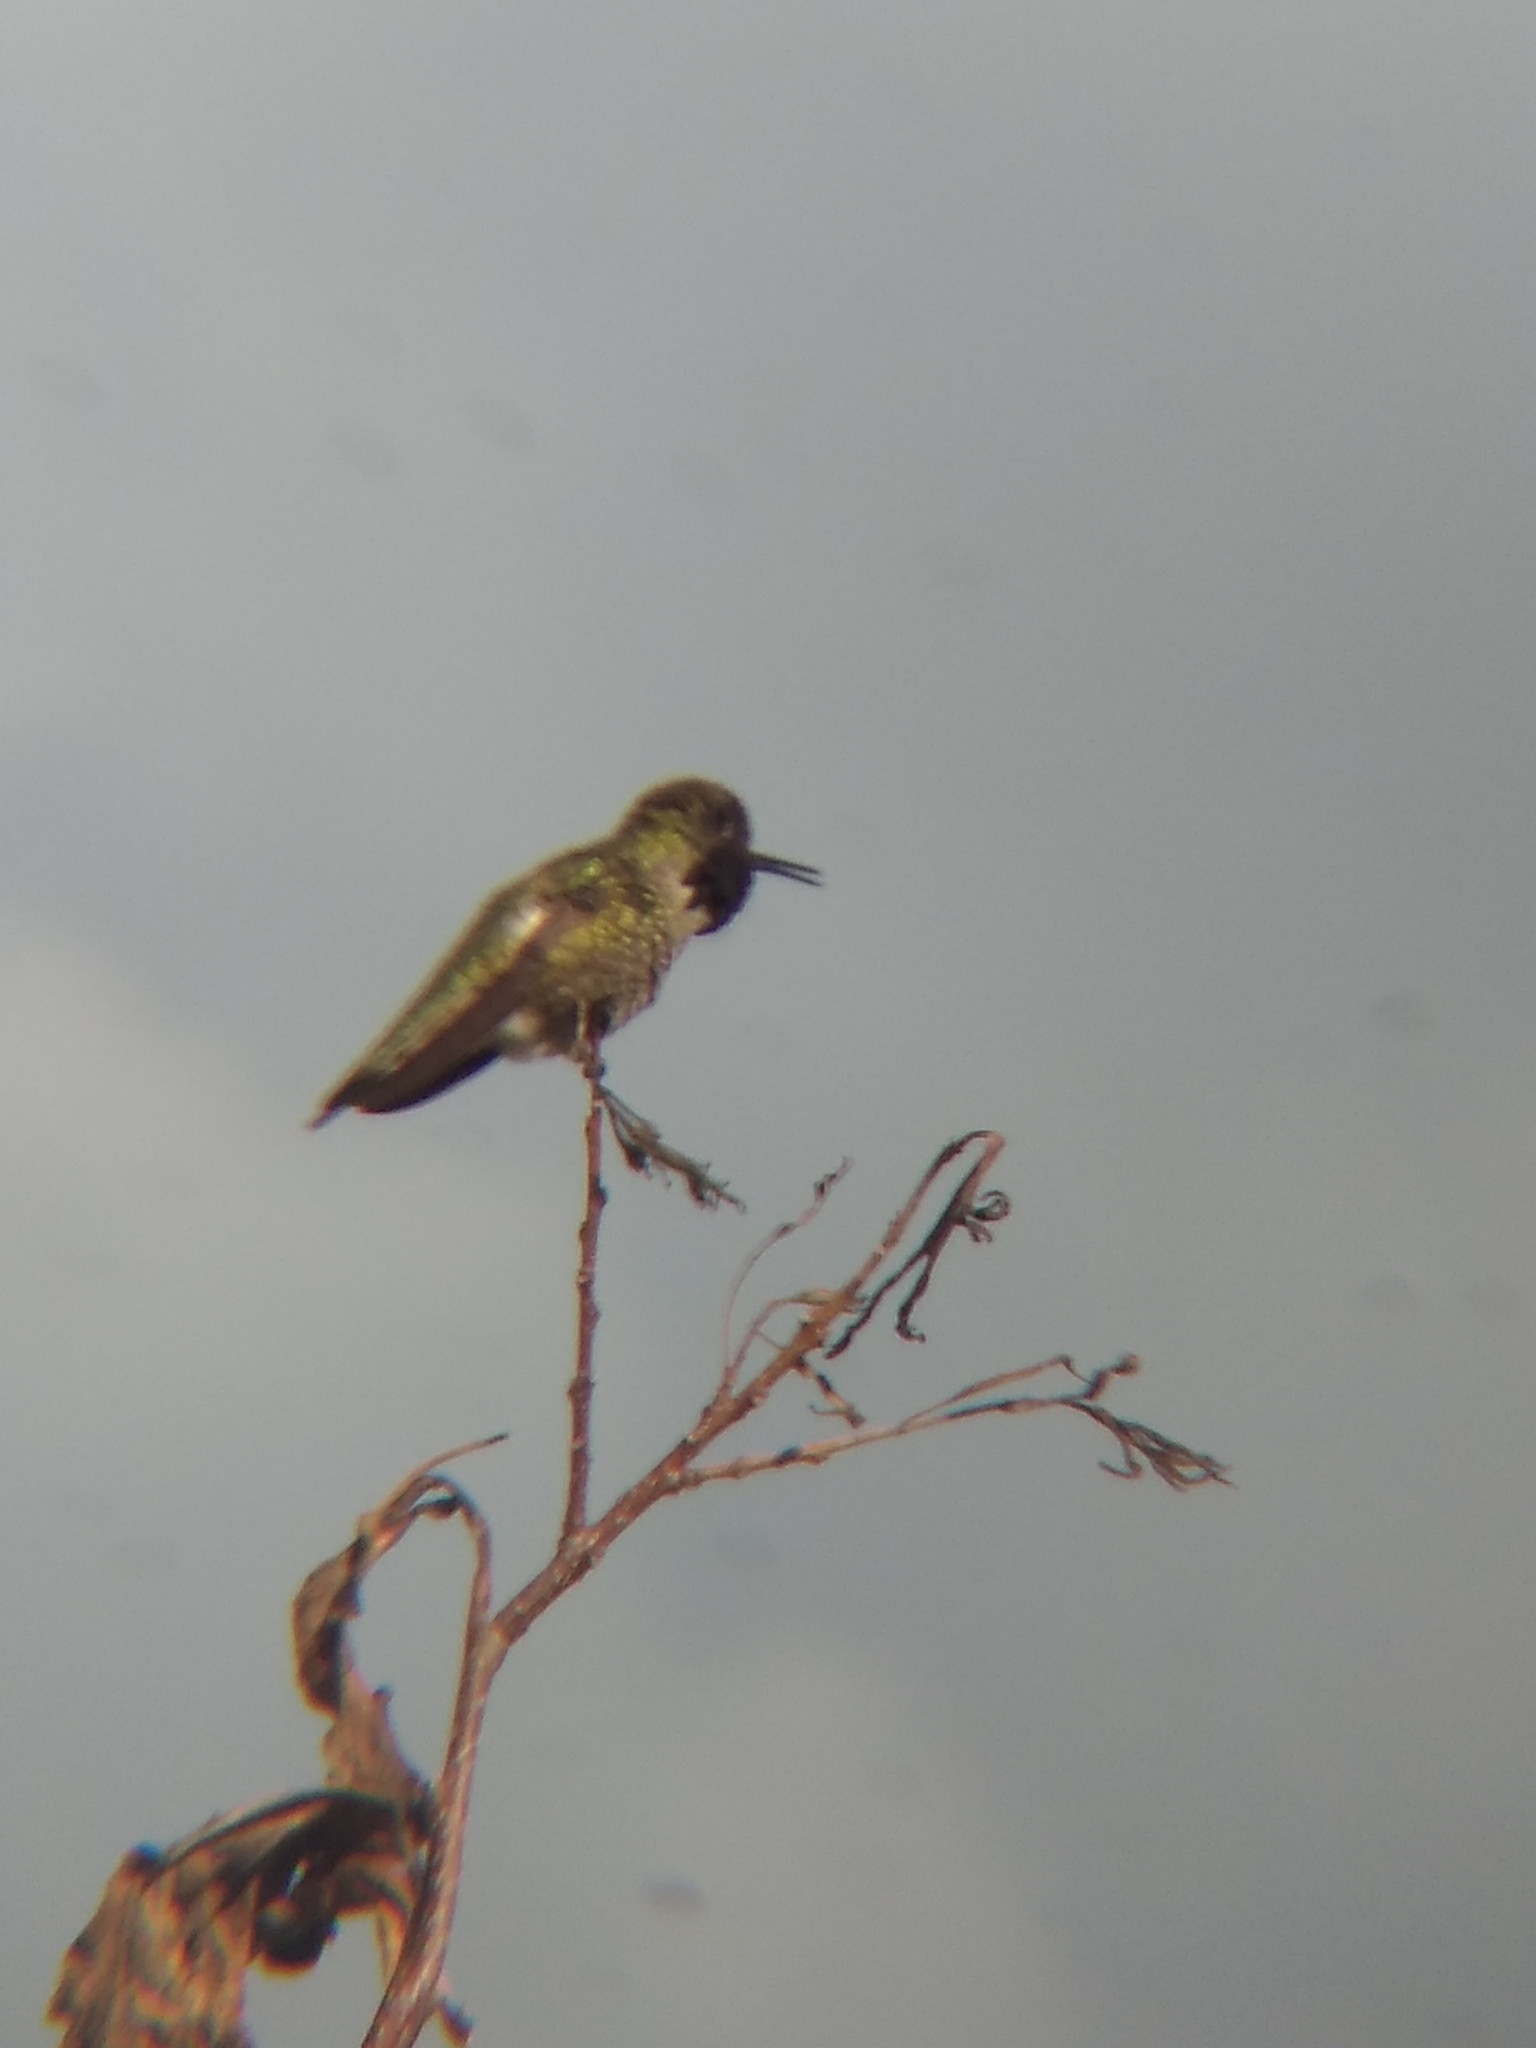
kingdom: Animalia
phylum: Chordata
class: Aves
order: Apodiformes
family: Trochilidae
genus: Calypte
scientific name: Calypte anna
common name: Anna's hummingbird
